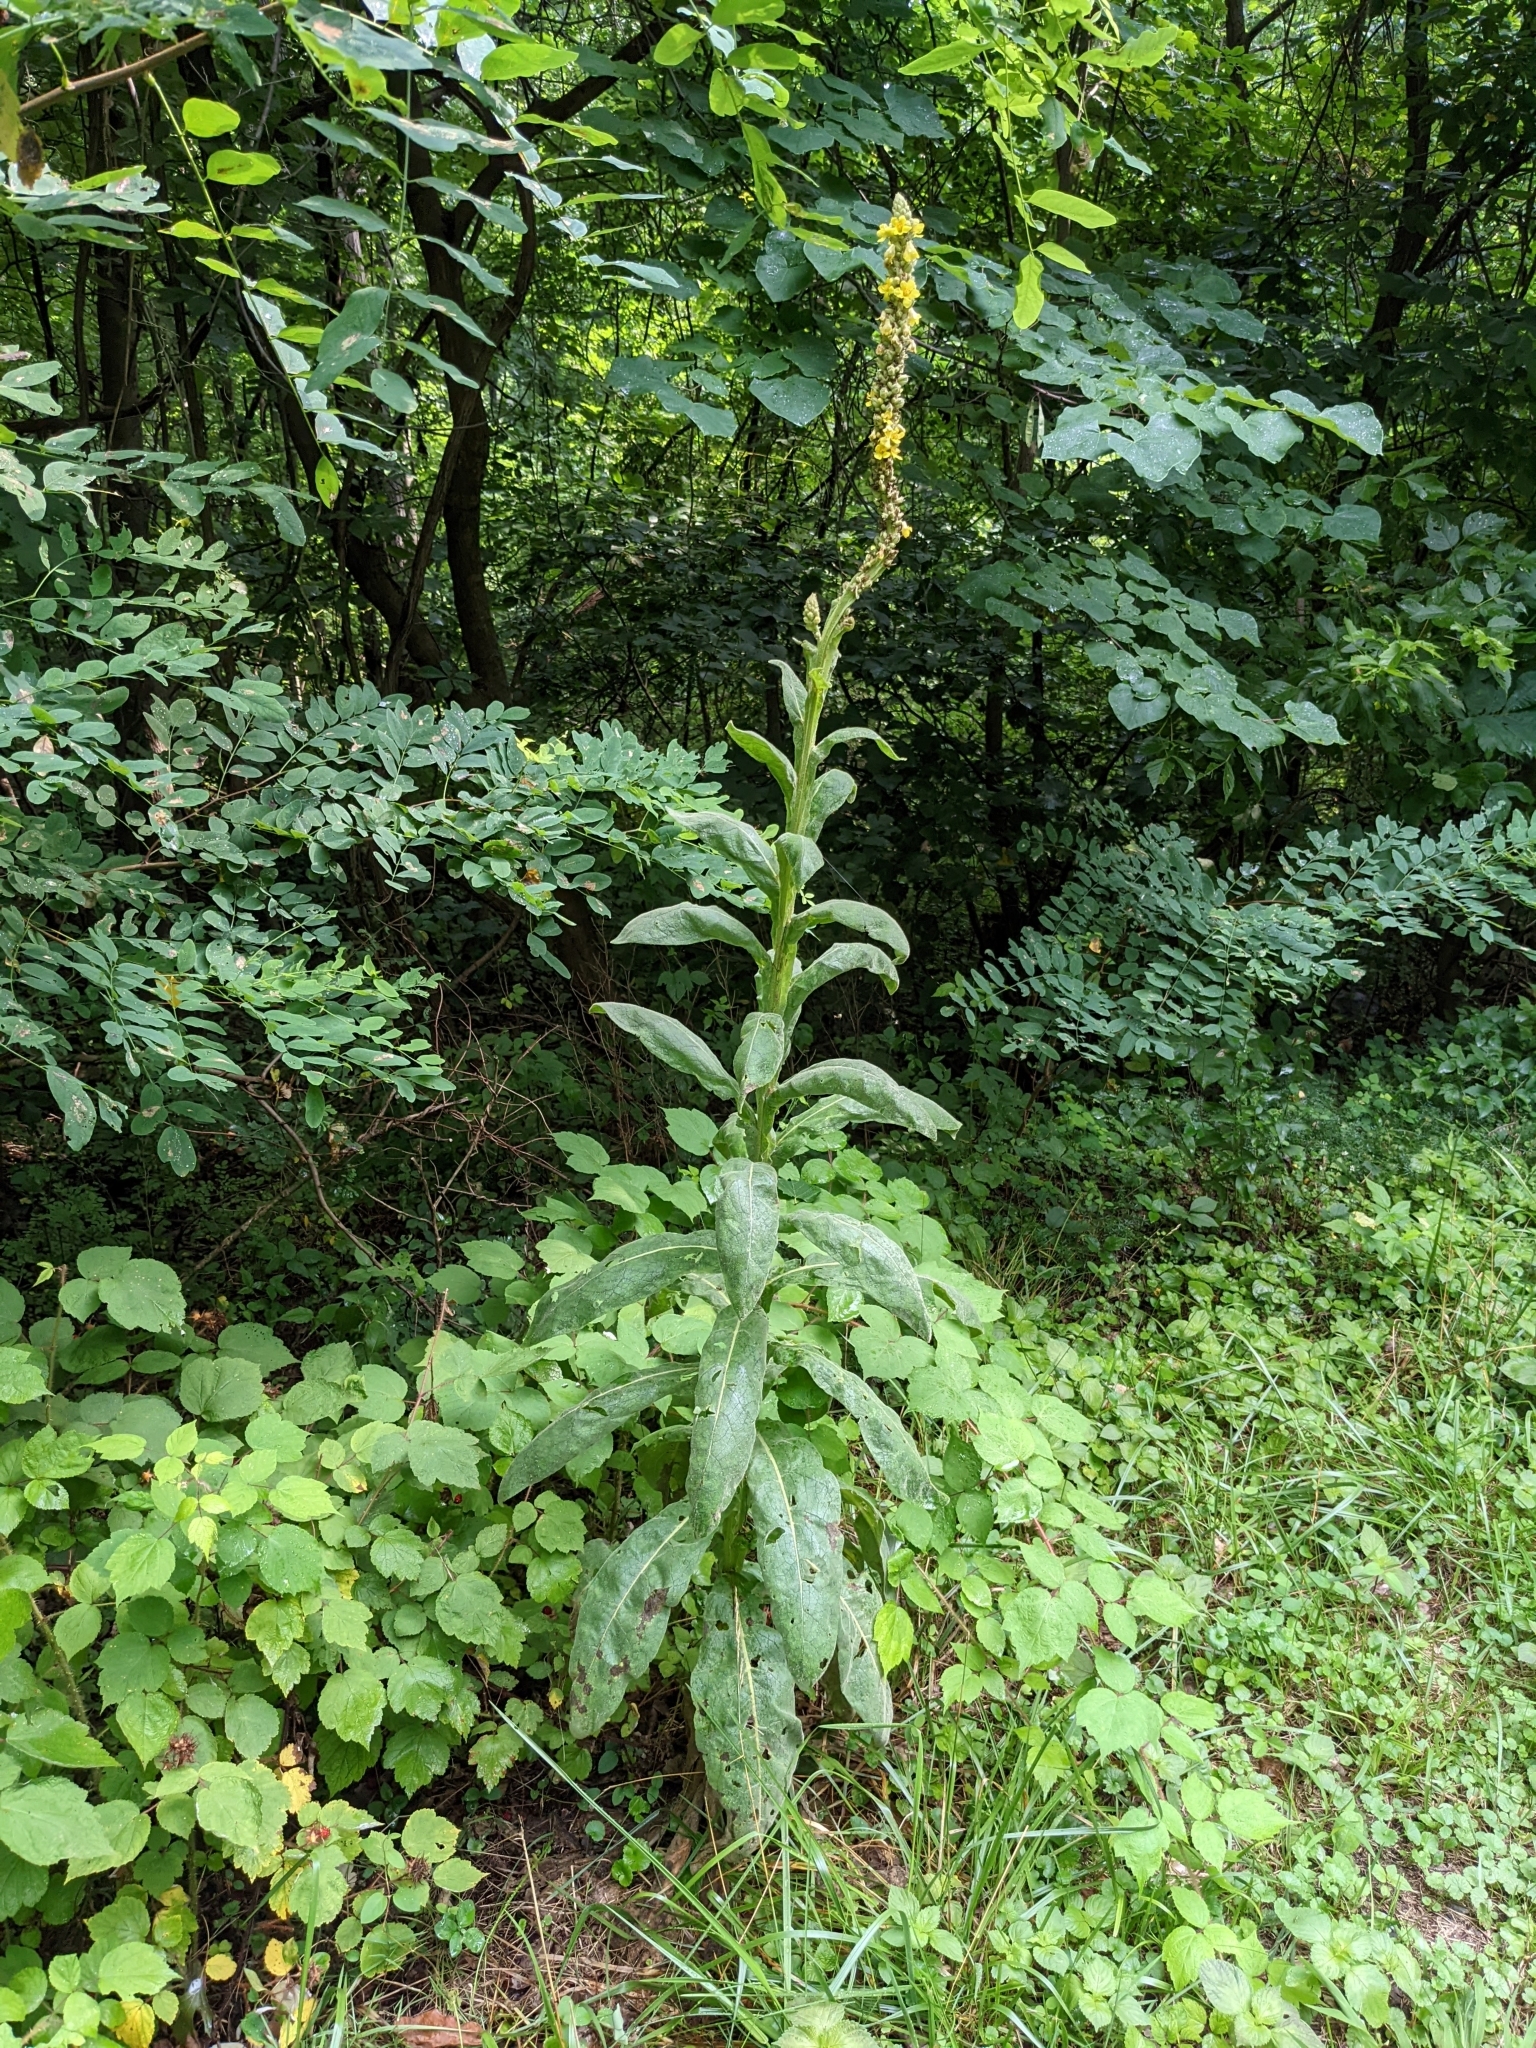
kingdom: Plantae
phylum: Tracheophyta
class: Magnoliopsida
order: Lamiales
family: Scrophulariaceae
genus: Verbascum
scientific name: Verbascum thapsus
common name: Common mullein
